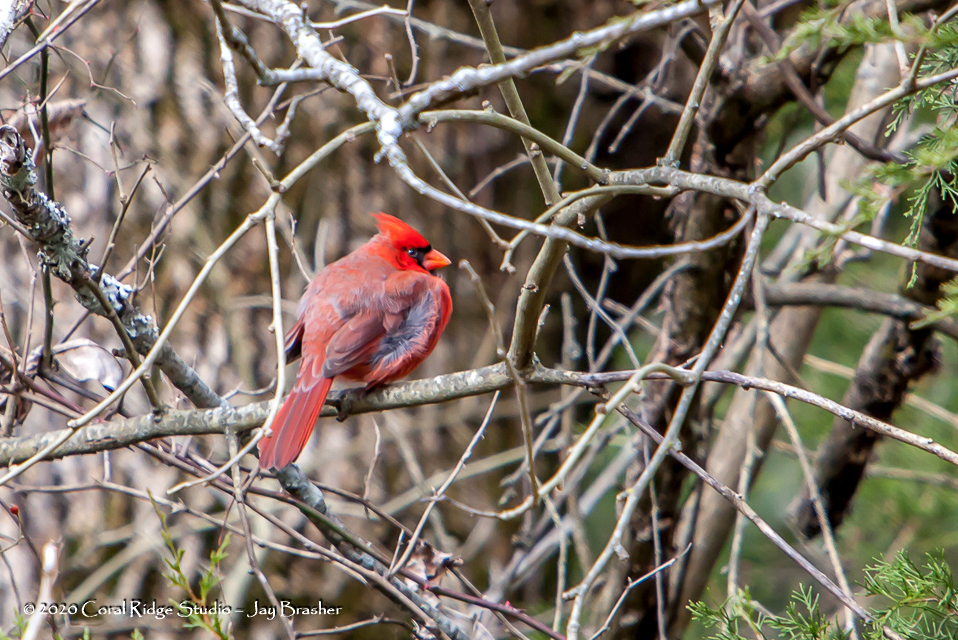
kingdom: Animalia
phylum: Chordata
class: Aves
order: Passeriformes
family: Cardinalidae
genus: Cardinalis
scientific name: Cardinalis cardinalis
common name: Northern cardinal
